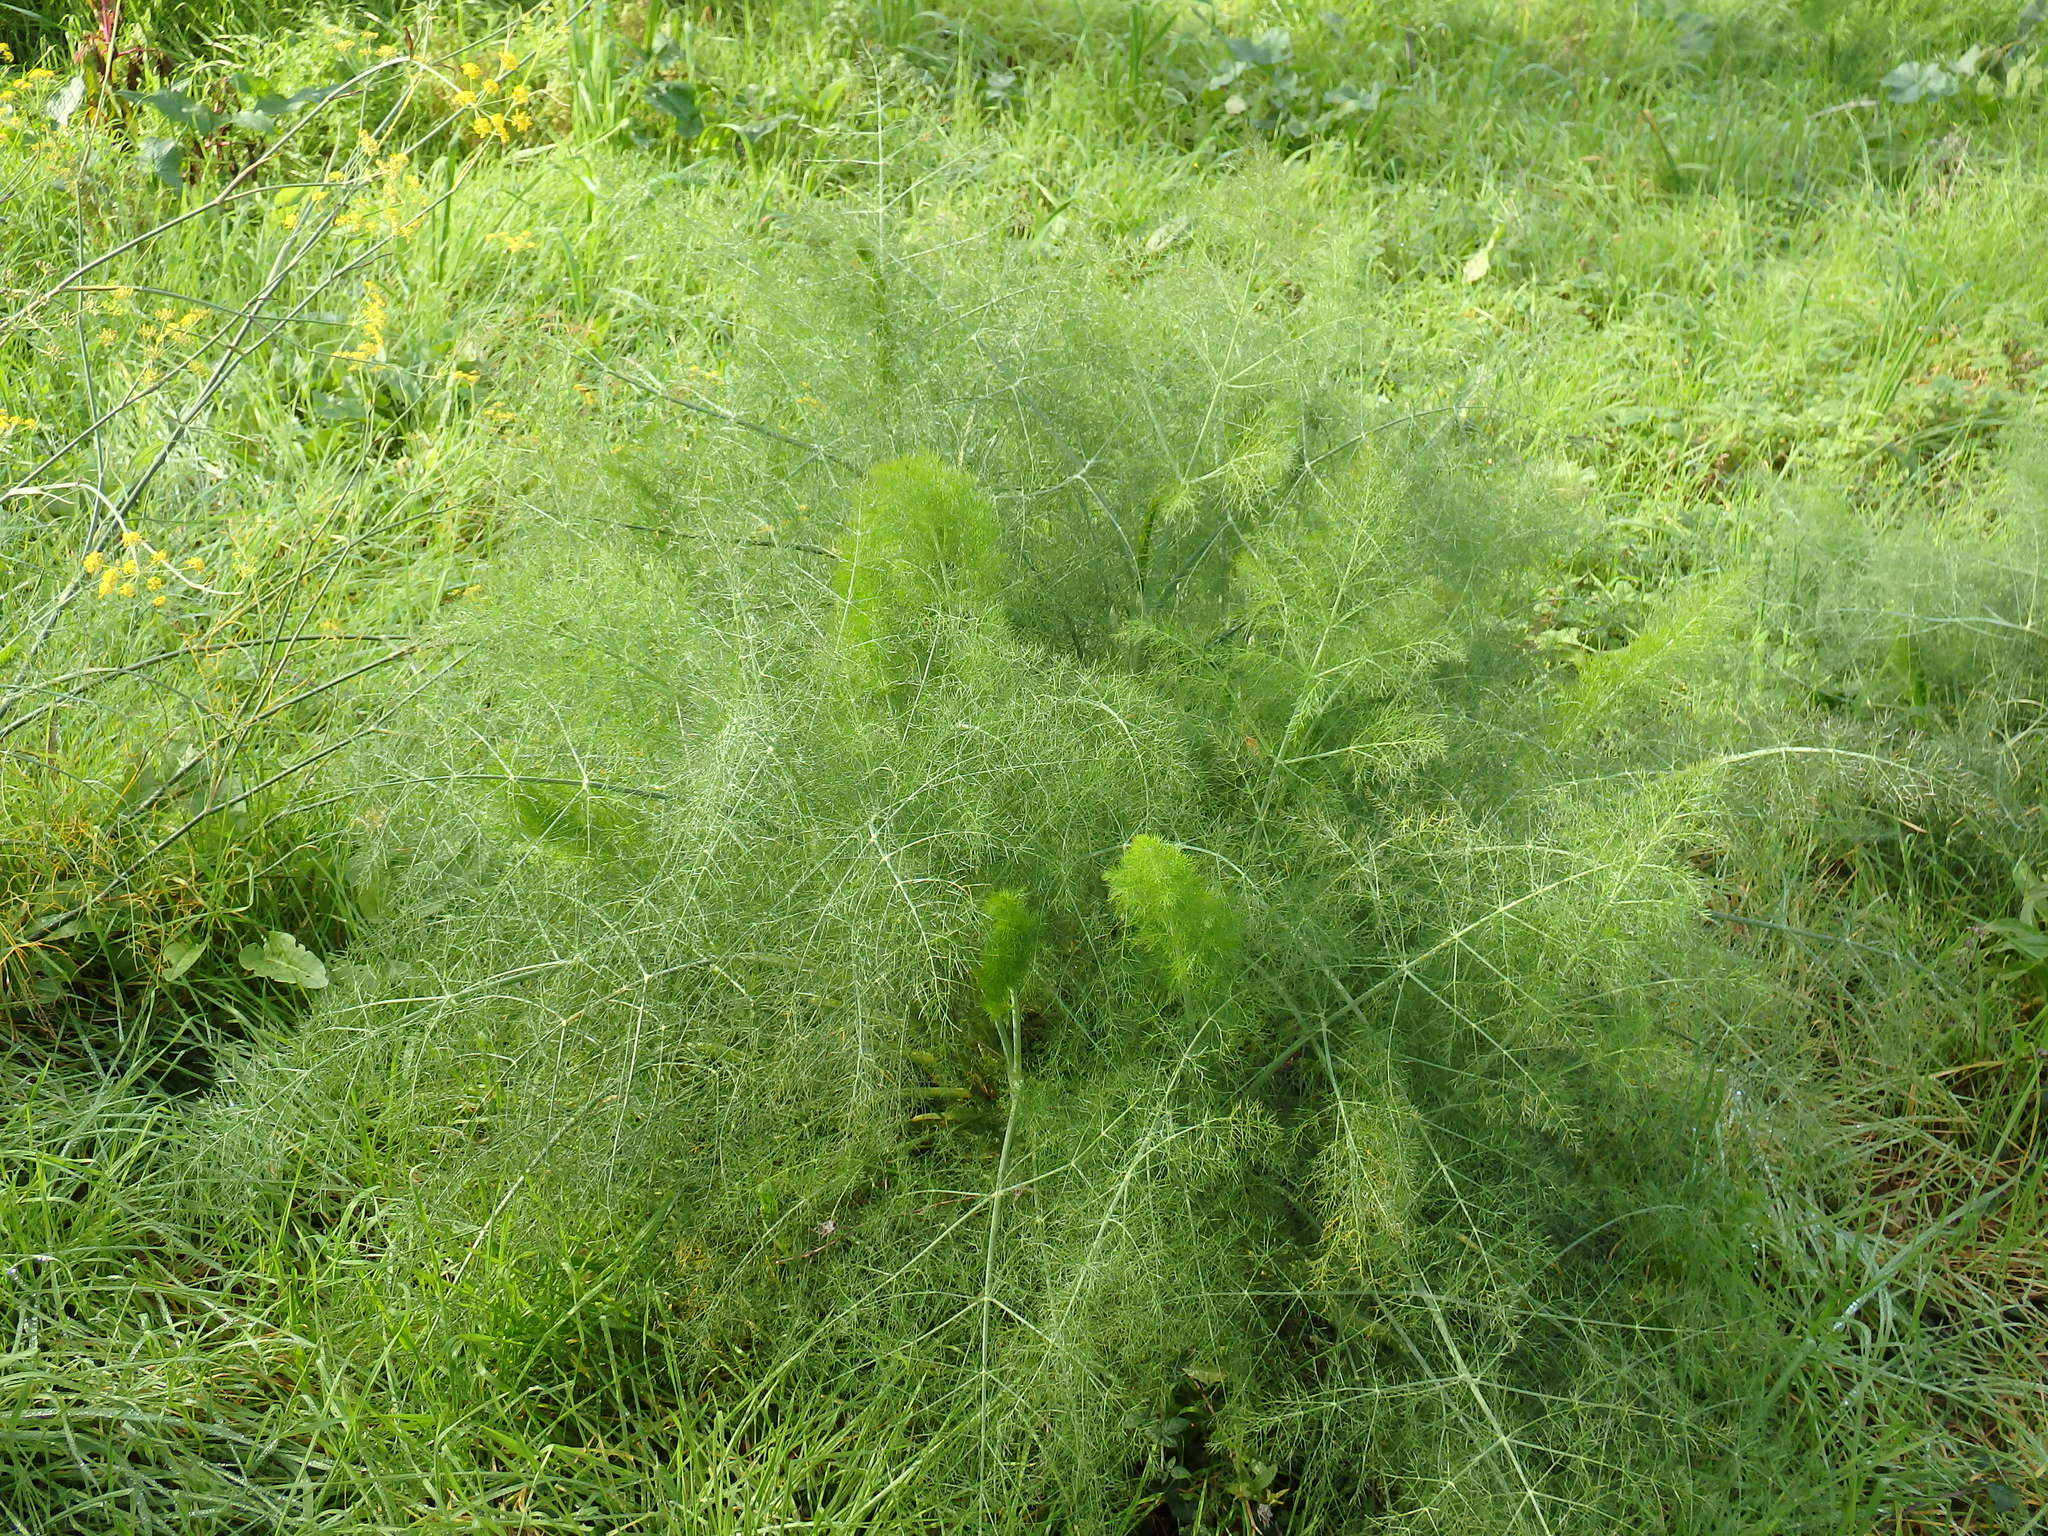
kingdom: Plantae
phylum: Tracheophyta
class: Magnoliopsida
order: Apiales
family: Apiaceae
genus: Foeniculum
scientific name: Foeniculum vulgare
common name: Fennel
